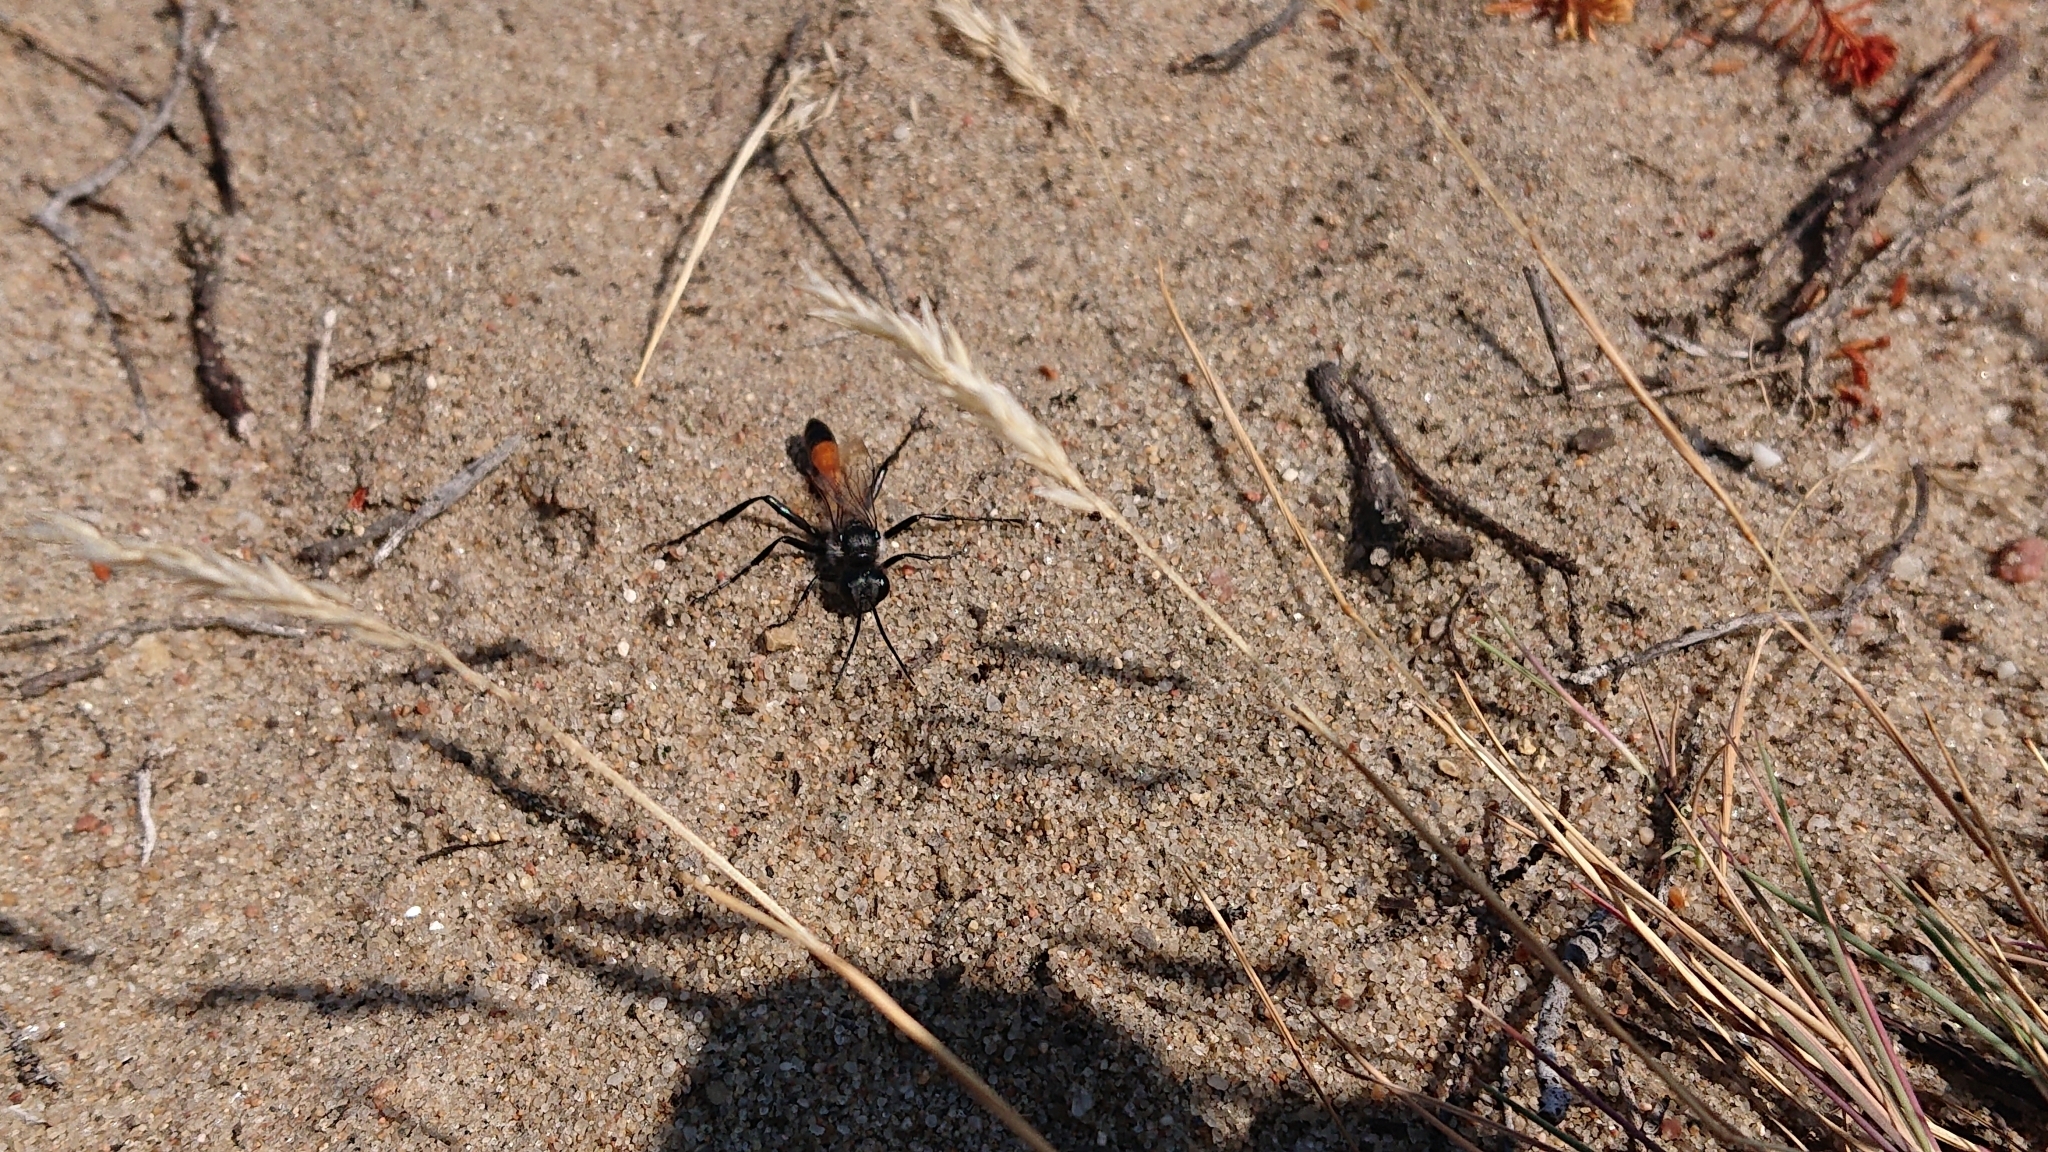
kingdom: Animalia
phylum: Arthropoda
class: Insecta
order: Hymenoptera
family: Sphecidae
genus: Ammophila
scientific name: Ammophila sabulosa
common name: Red banded sand wasp
